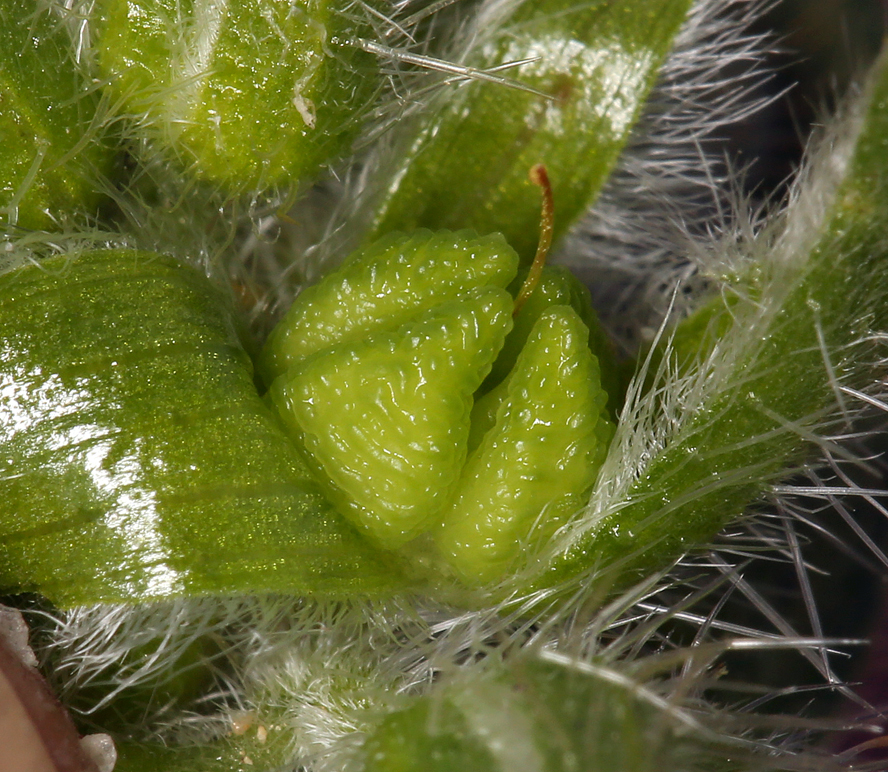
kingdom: Plantae
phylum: Tracheophyta
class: Magnoliopsida
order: Boraginales
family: Boraginaceae
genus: Amsinckia
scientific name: Amsinckia tessellata
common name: Tessellate fiddleneck
